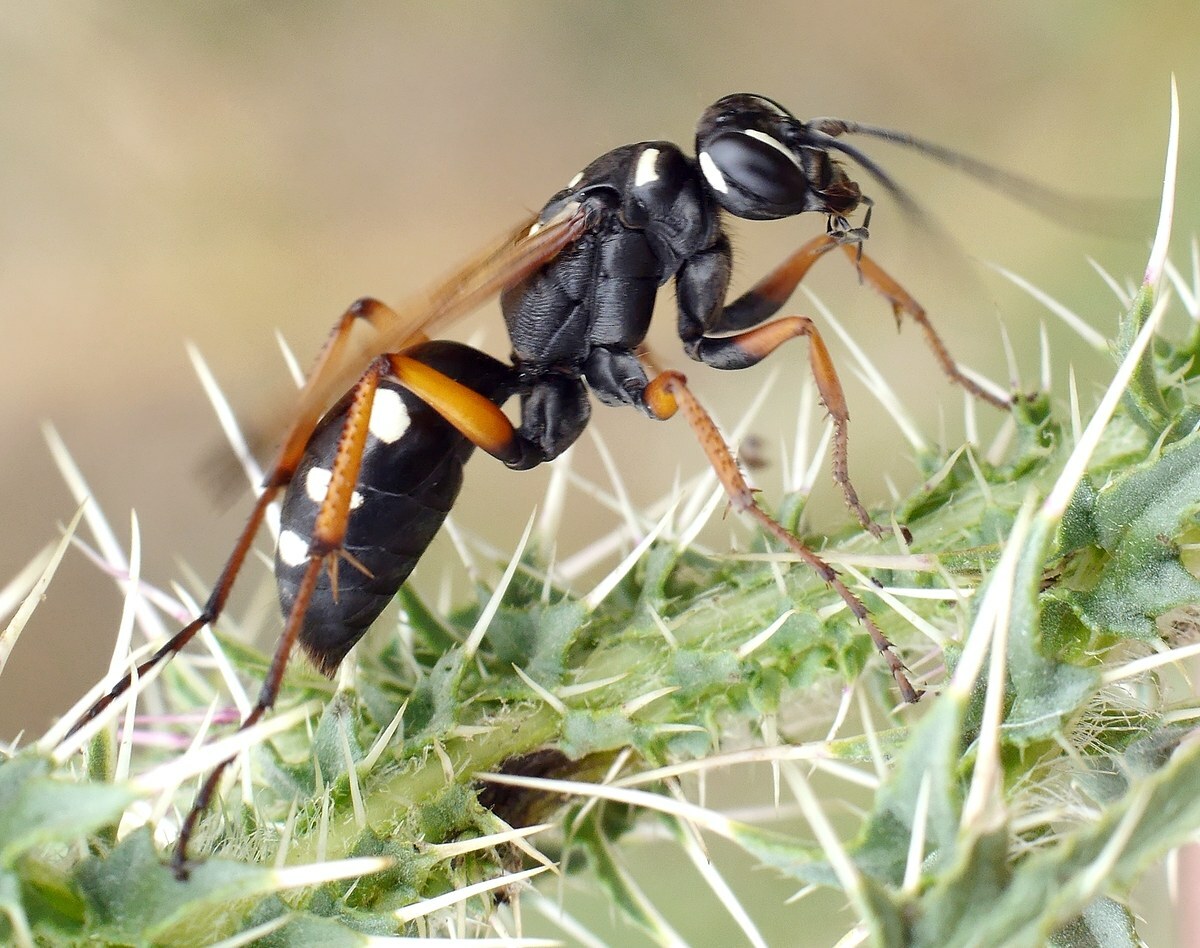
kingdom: Animalia
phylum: Arthropoda
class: Insecta
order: Hymenoptera
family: Pompilidae
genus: Cryptocheilus
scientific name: Cryptocheilus variabilis
